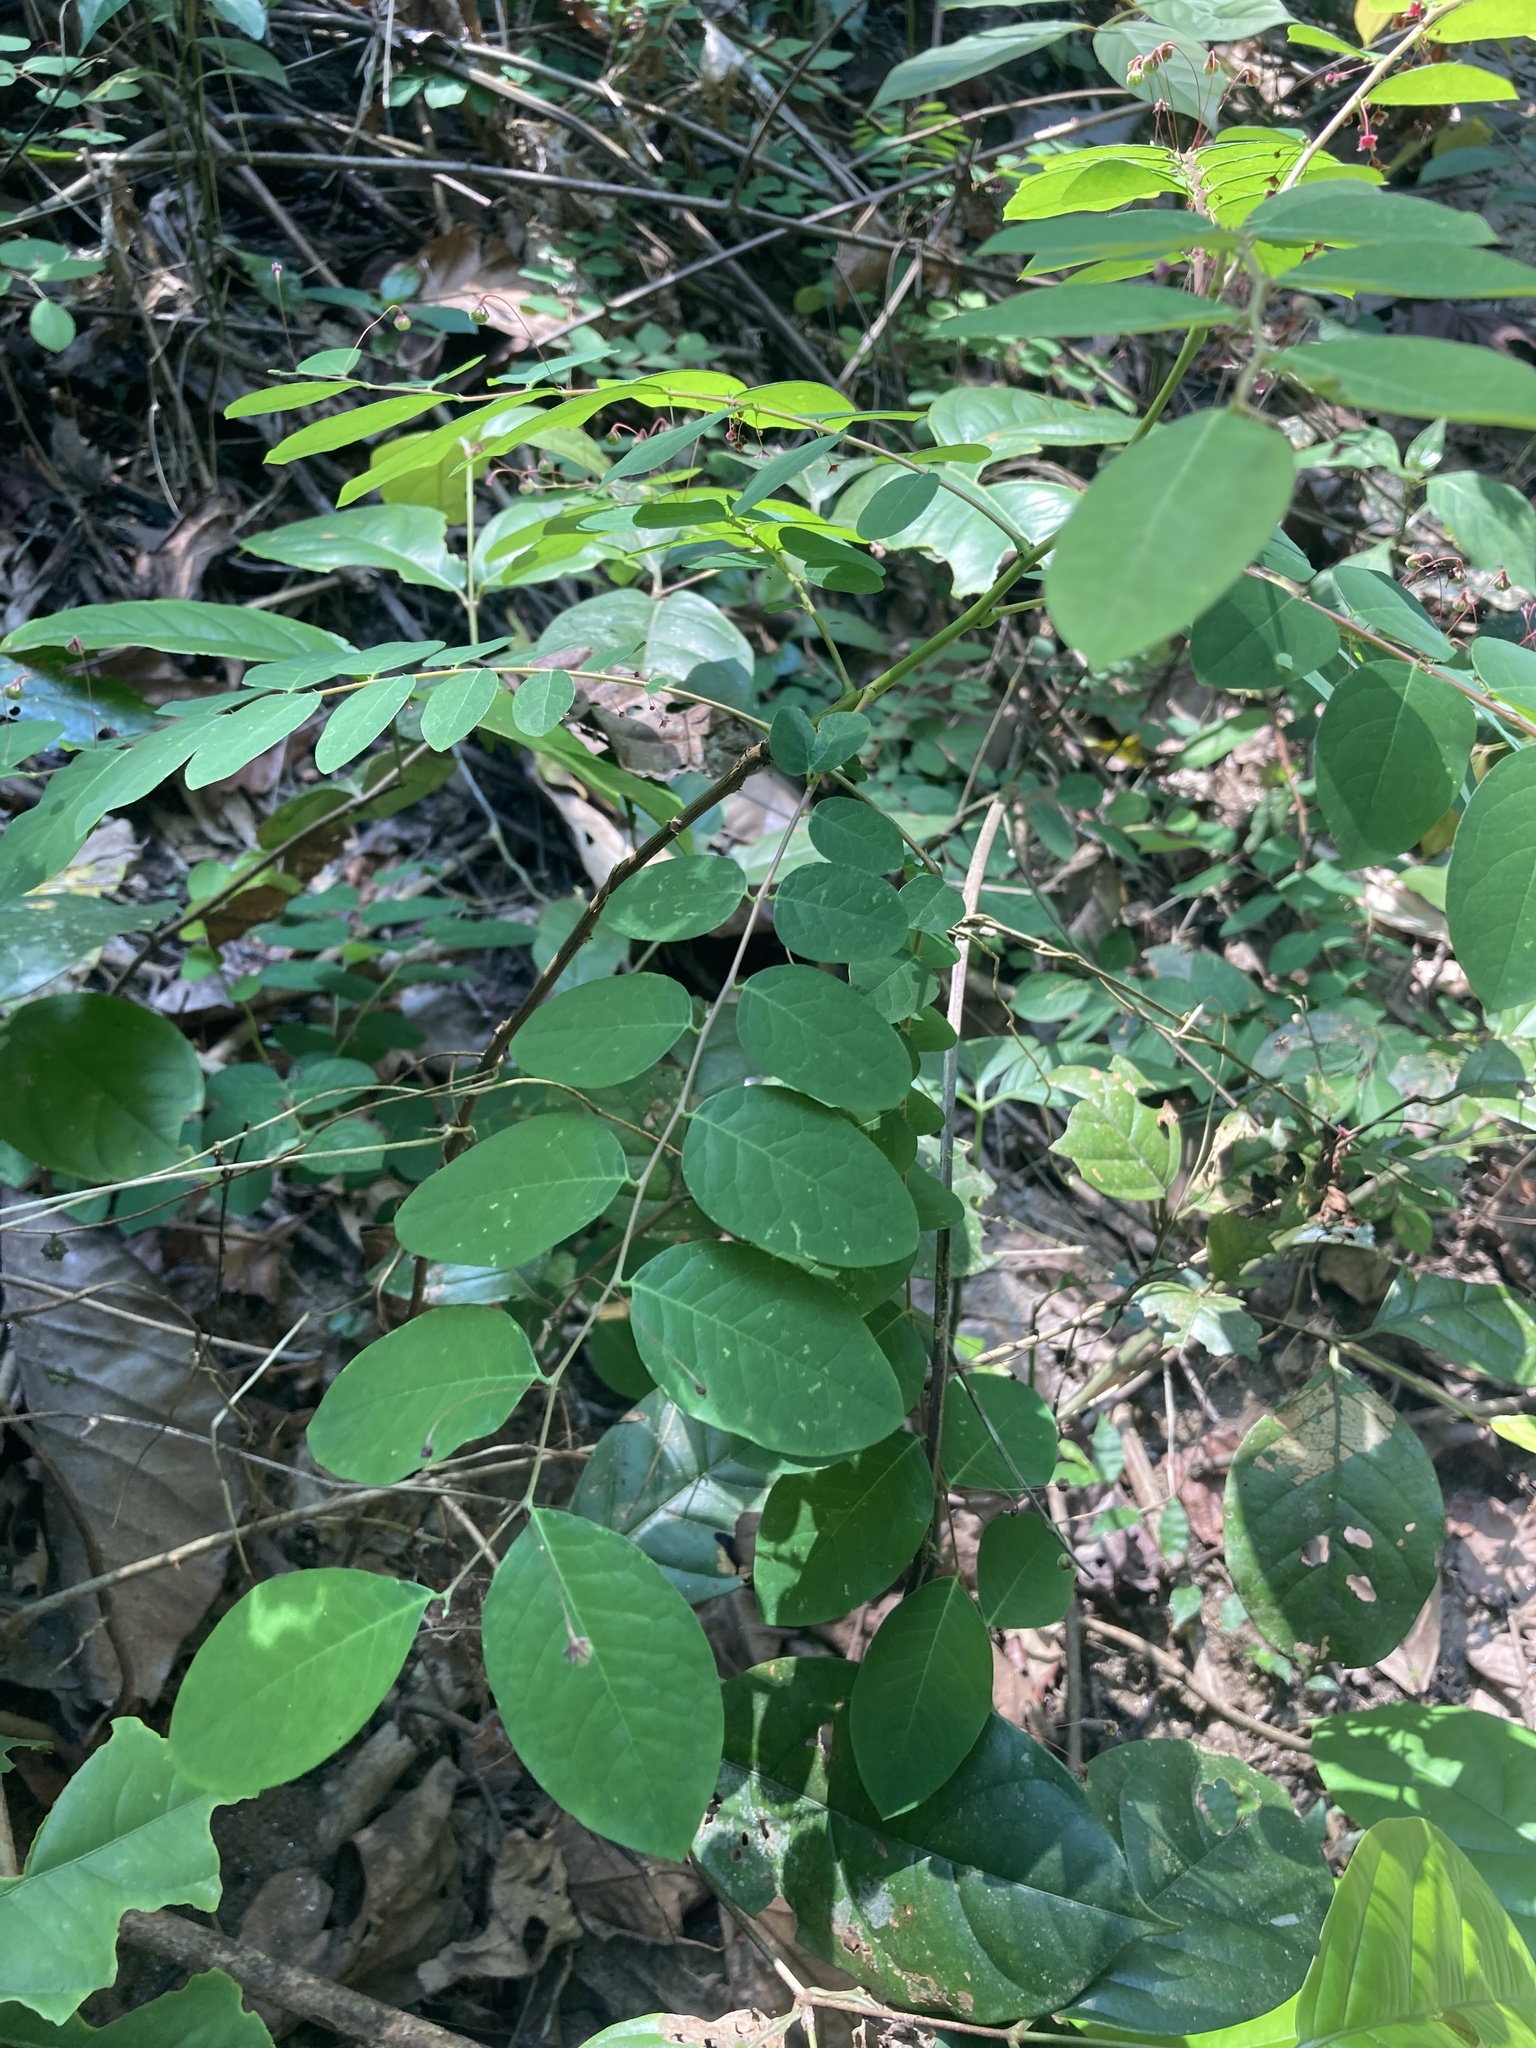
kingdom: Plantae
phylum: Tracheophyta
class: Magnoliopsida
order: Malpighiales
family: Phyllanthaceae
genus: Phyllanthus
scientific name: Phyllanthus sikkimensis
